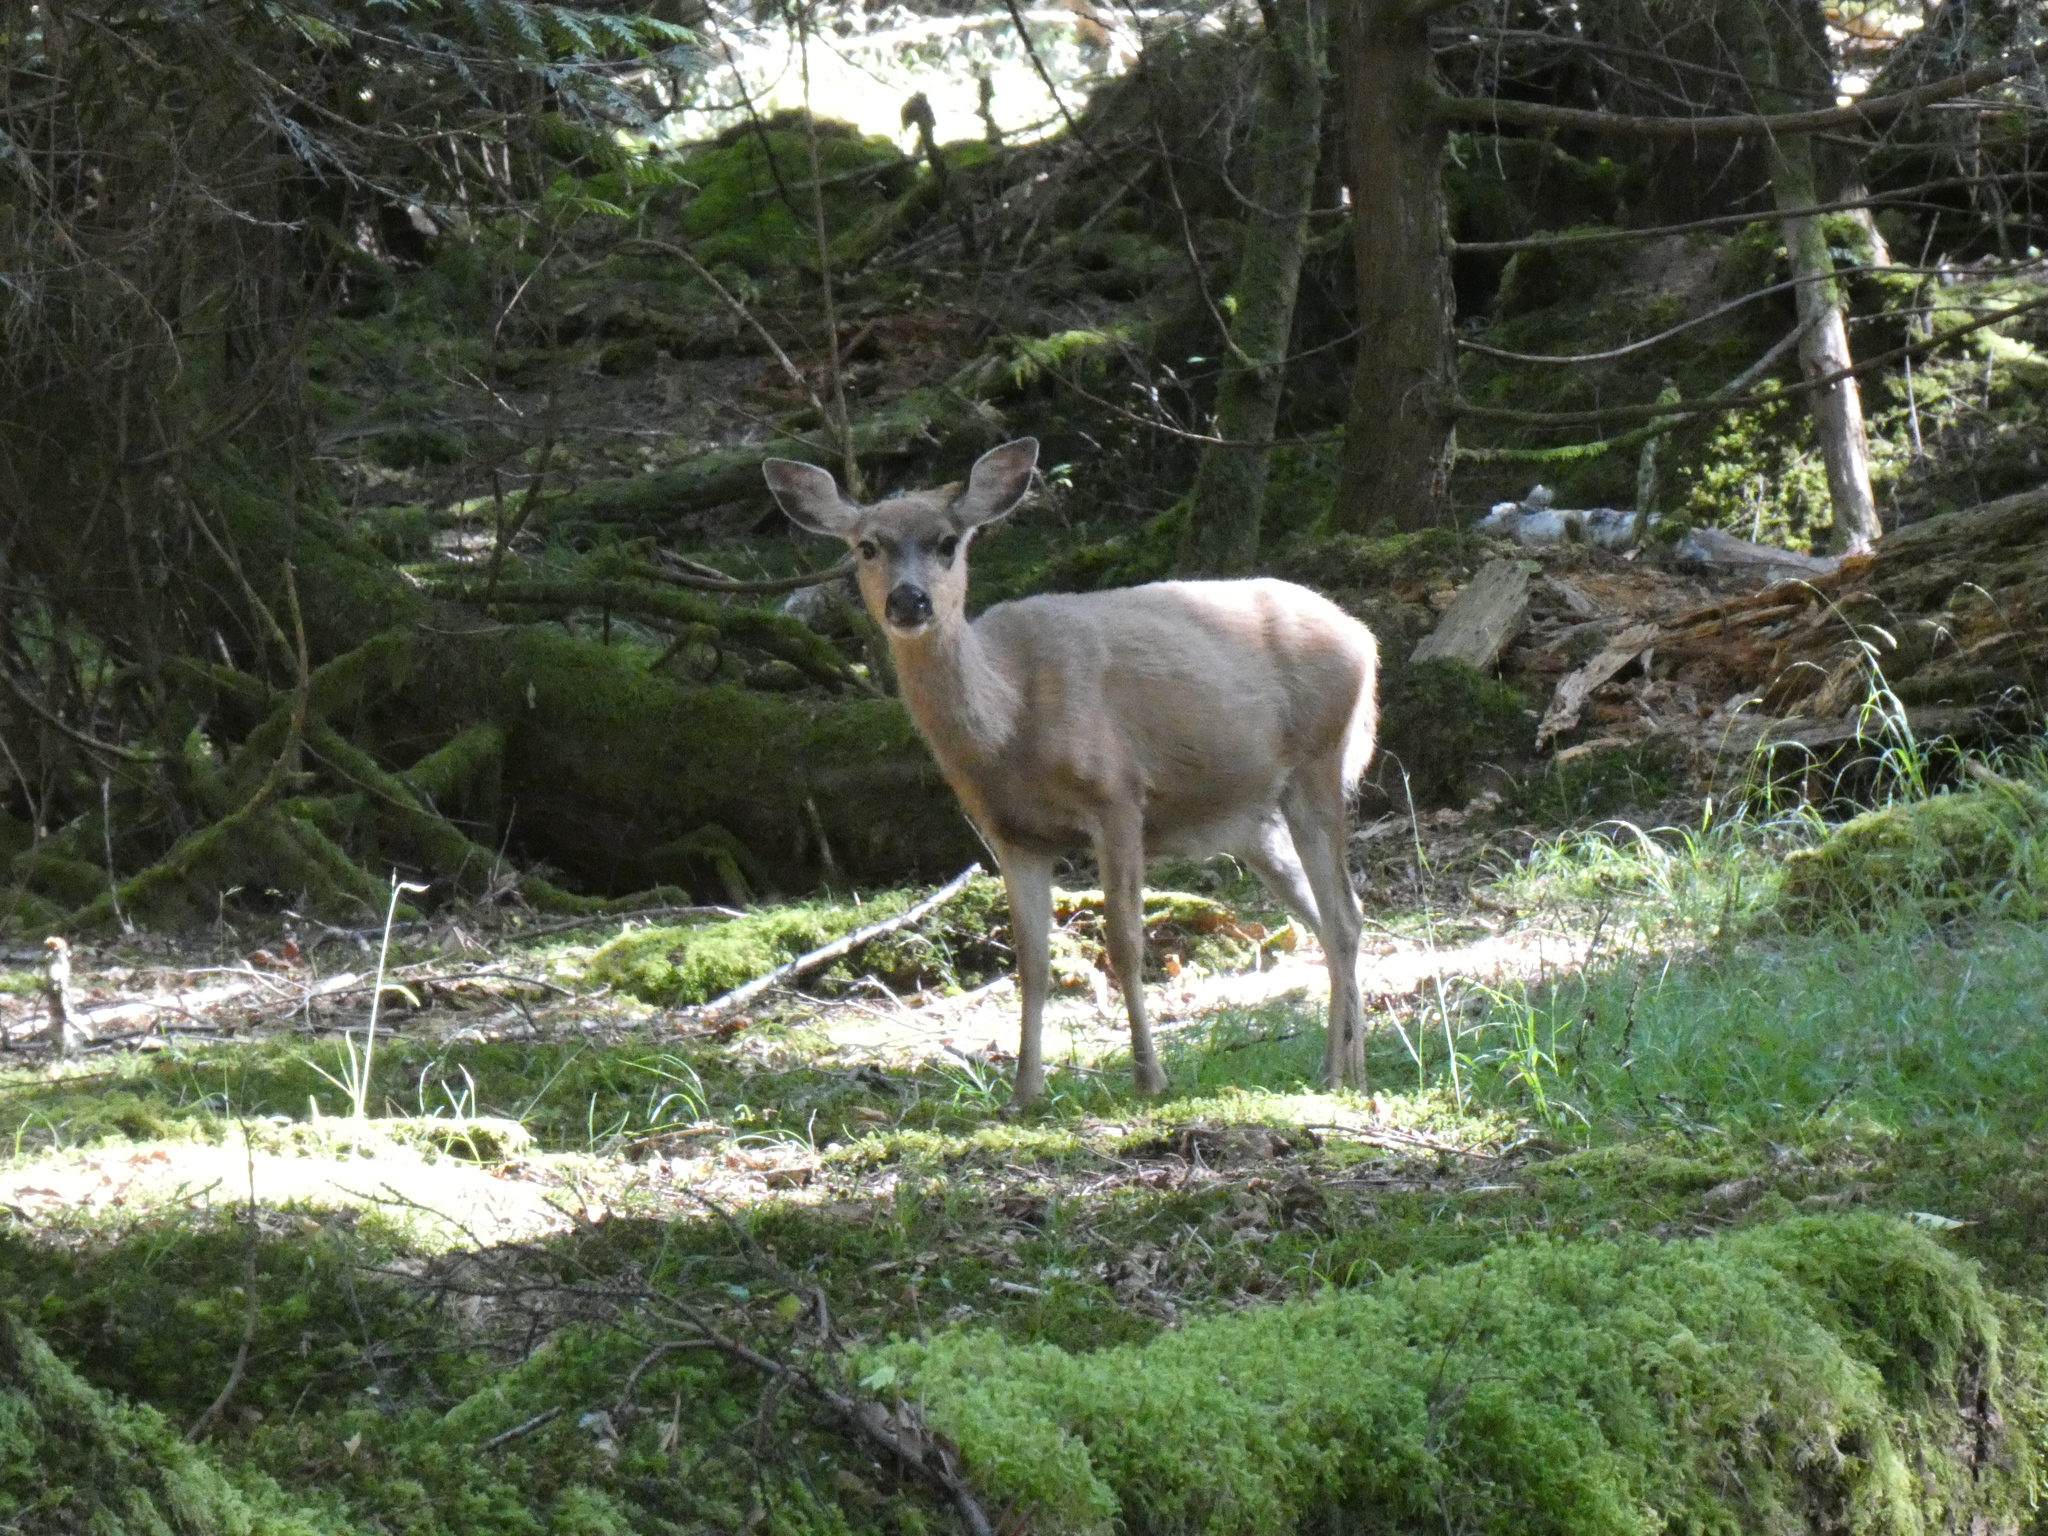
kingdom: Animalia
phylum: Chordata
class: Mammalia
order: Artiodactyla
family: Cervidae
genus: Odocoileus
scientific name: Odocoileus hemionus
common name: Mule deer
